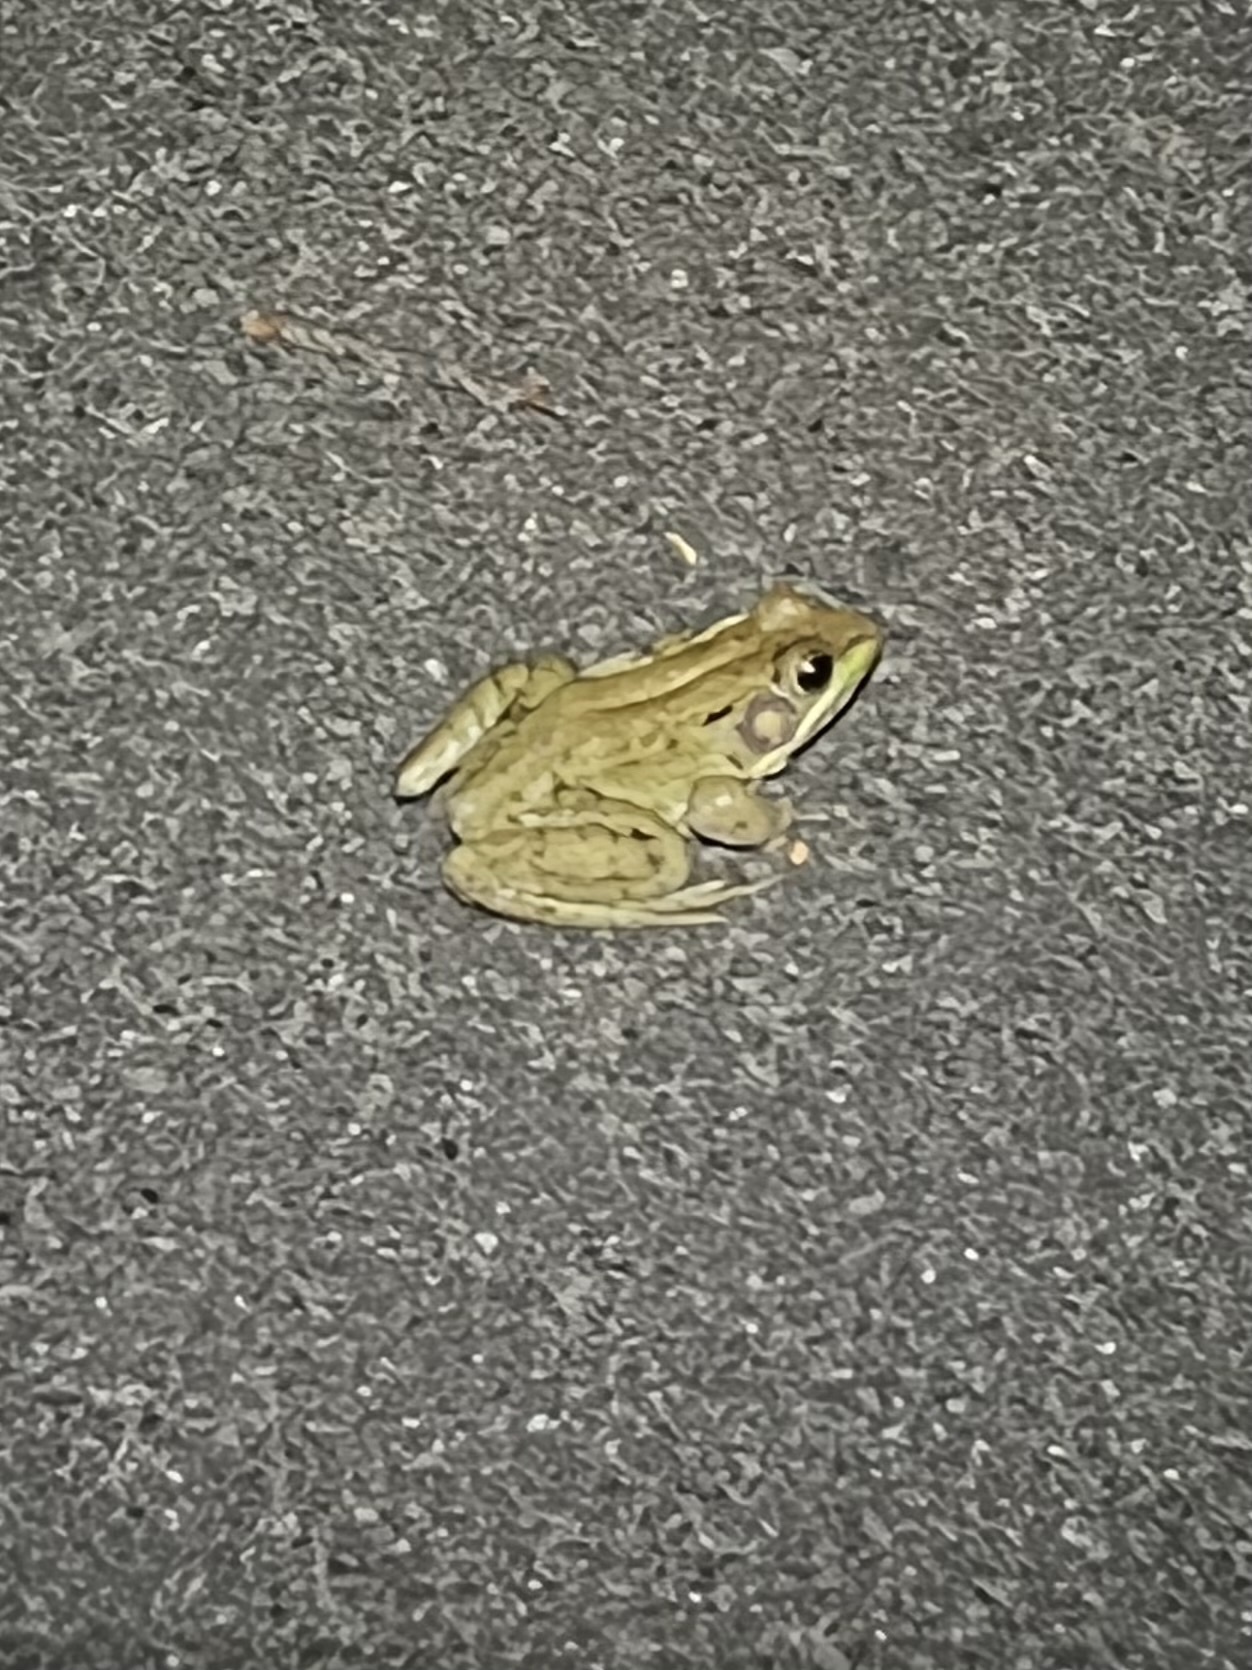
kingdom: Animalia
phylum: Chordata
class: Amphibia
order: Anura
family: Ranidae
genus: Lithobates
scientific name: Lithobates clamitans
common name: Green frog
